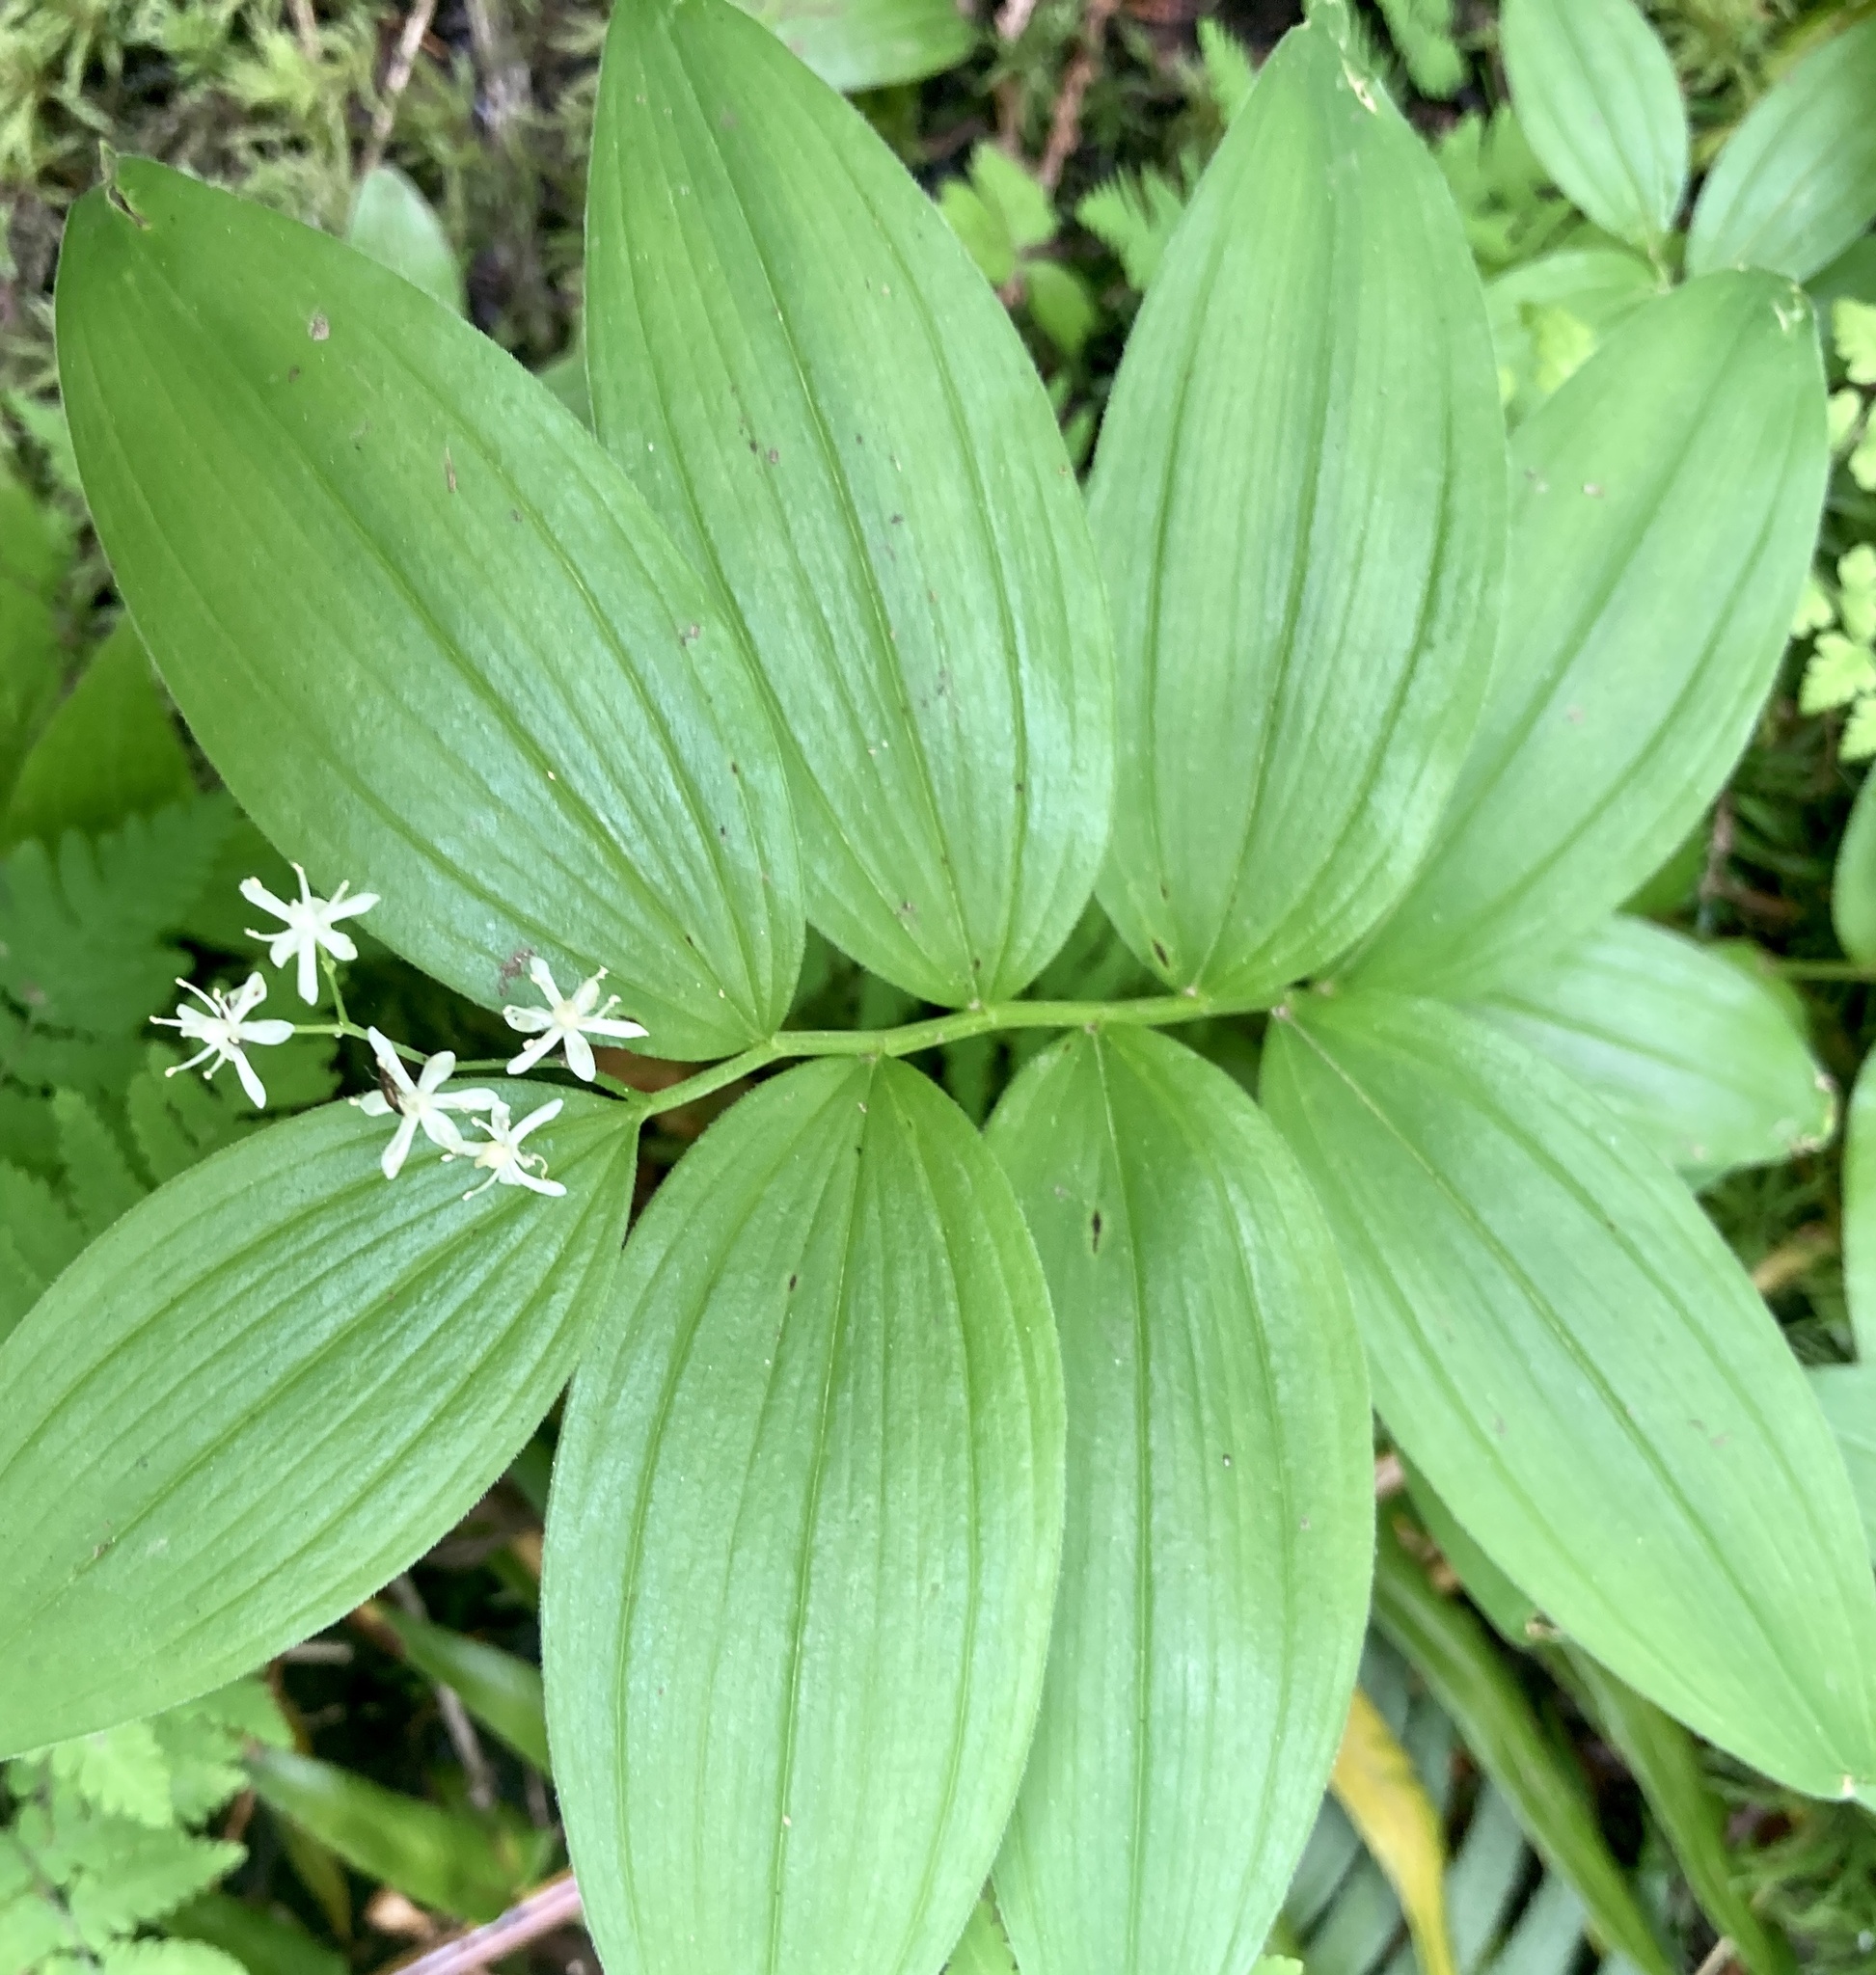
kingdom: Plantae
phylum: Tracheophyta
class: Liliopsida
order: Asparagales
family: Asparagaceae
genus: Maianthemum
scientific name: Maianthemum stellatum
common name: Little false solomon's seal
